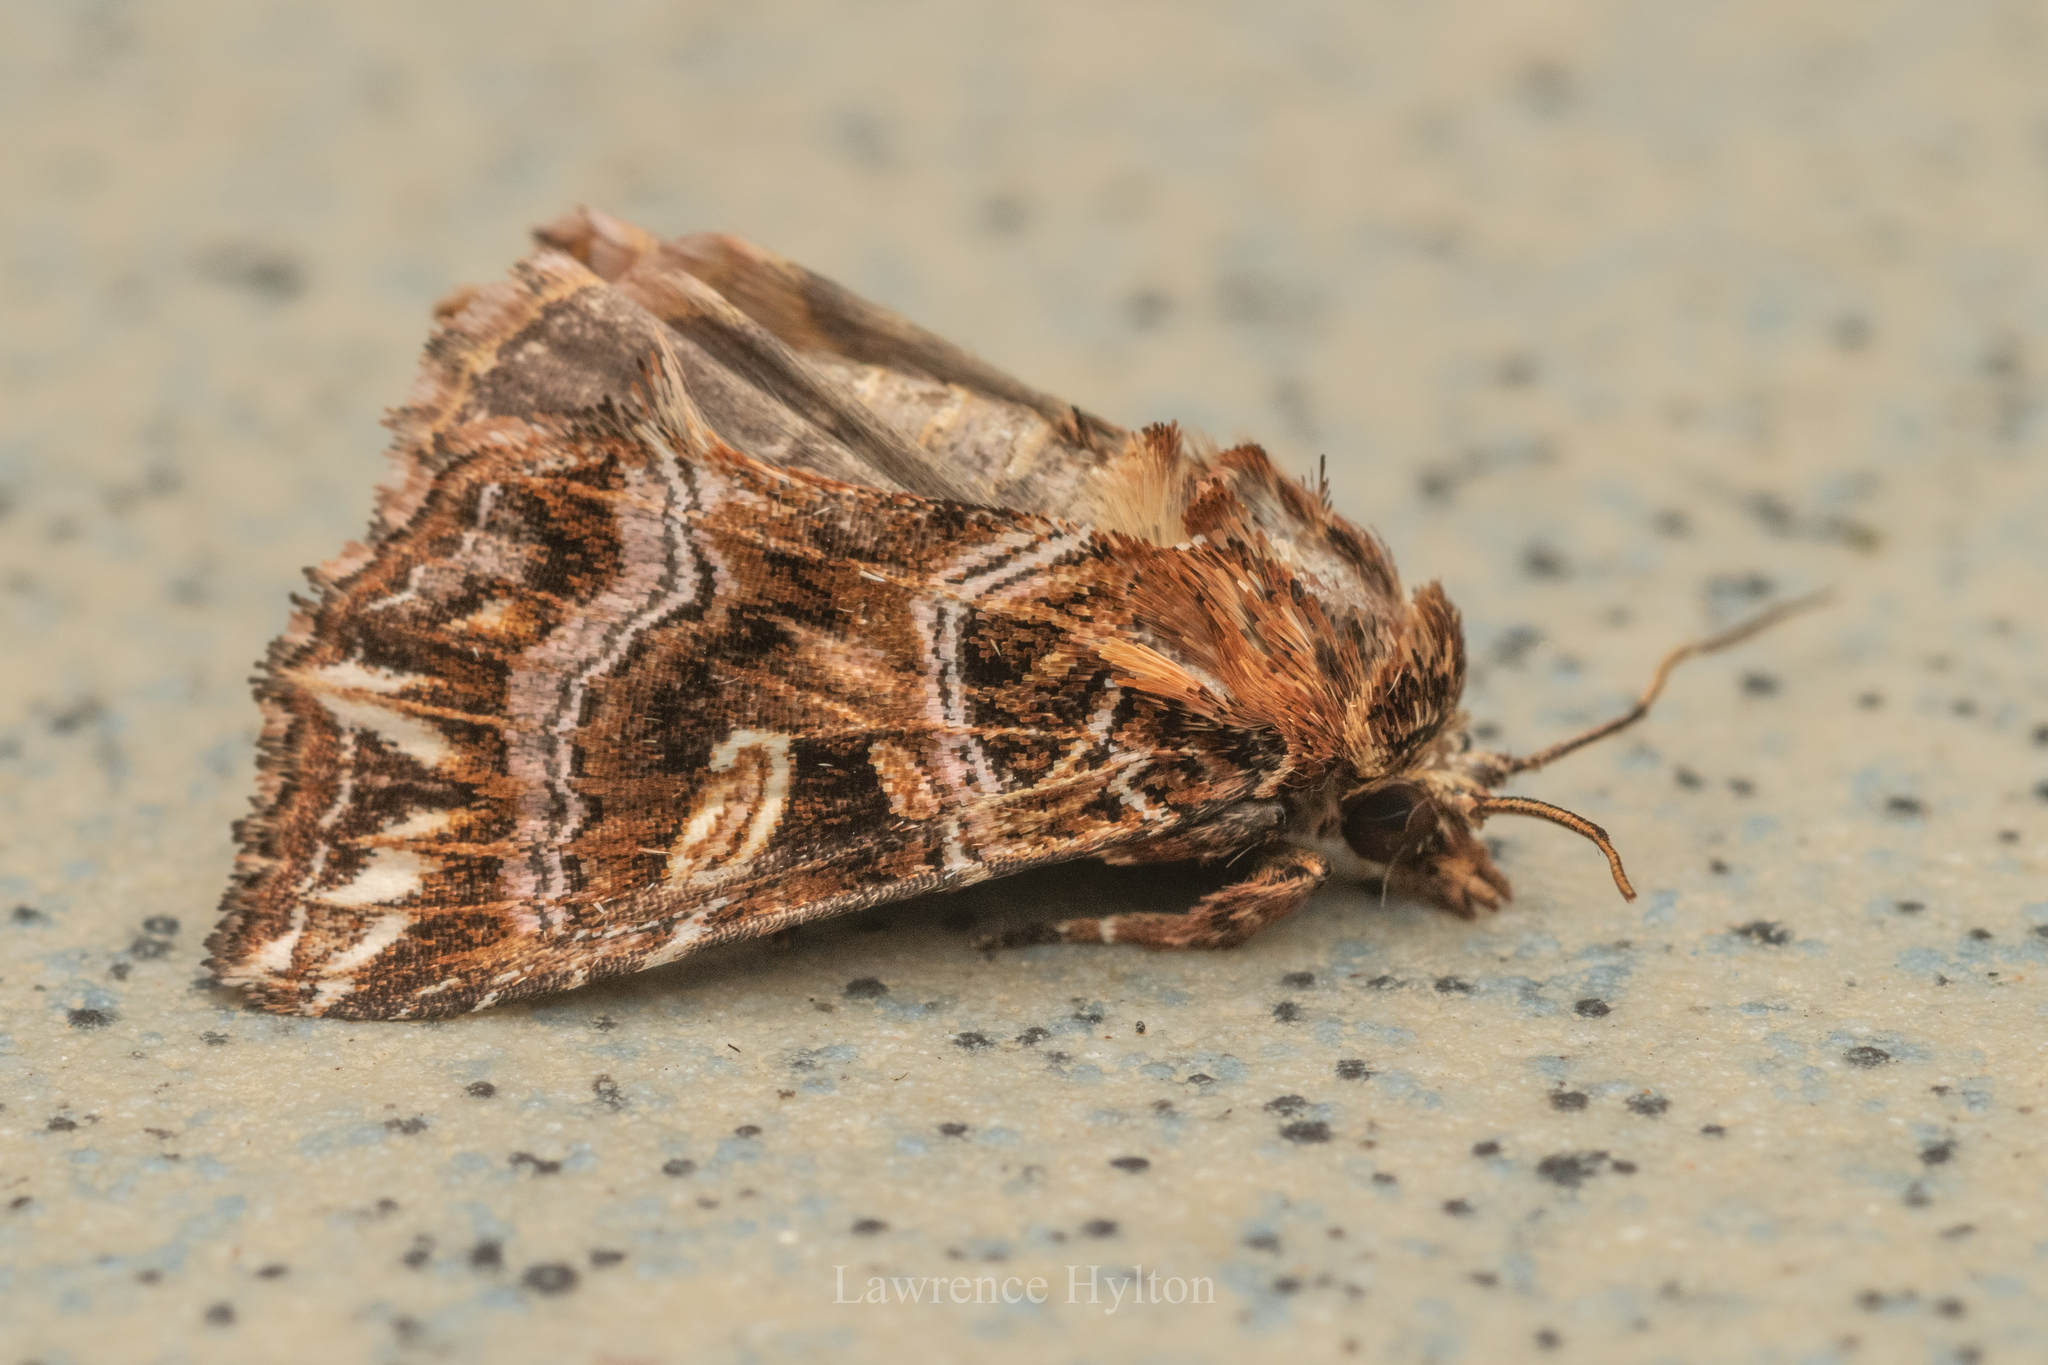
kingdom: Animalia
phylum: Arthropoda
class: Insecta
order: Lepidoptera
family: Noctuidae
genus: Callopistria
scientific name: Callopistria exotica
